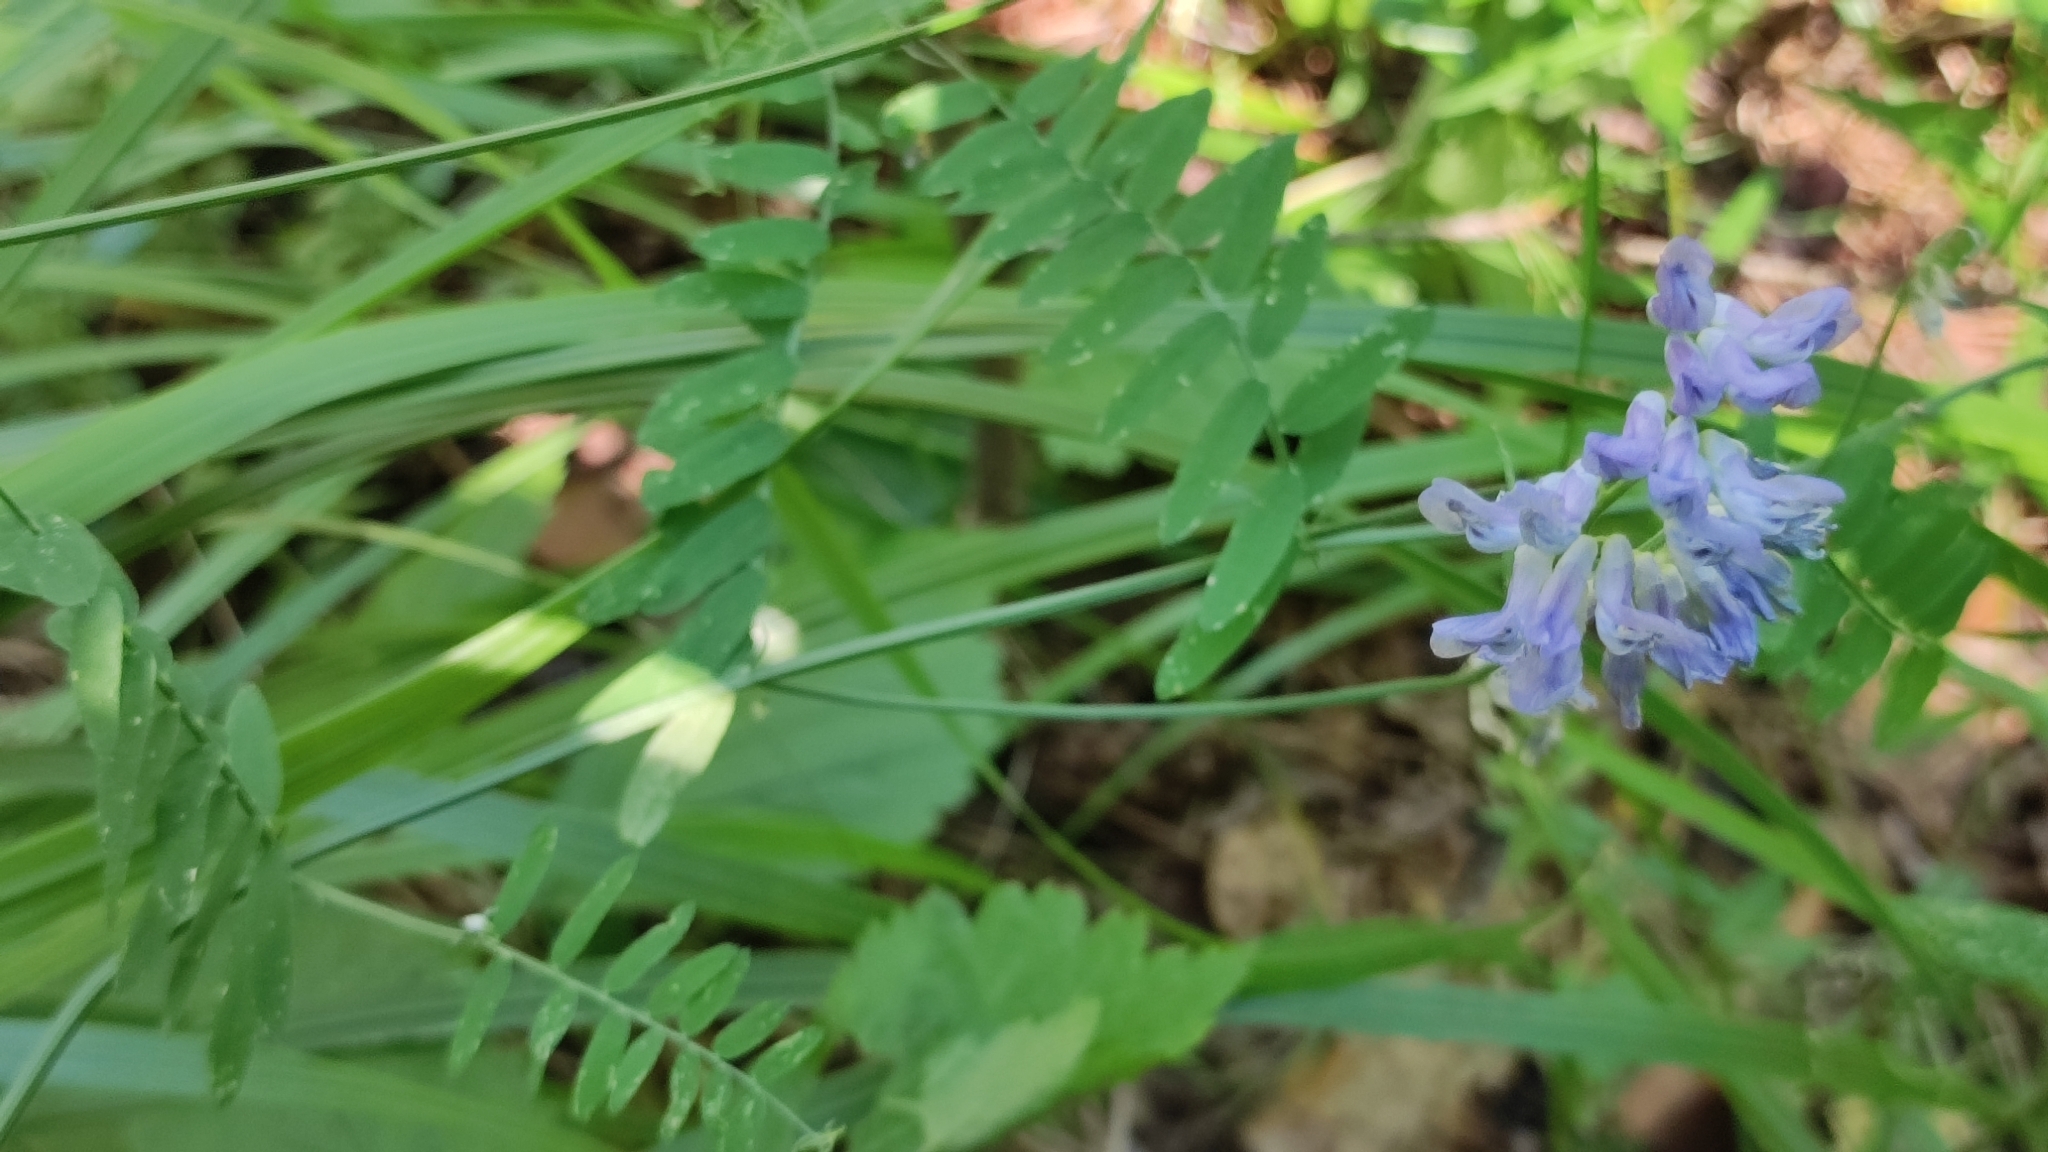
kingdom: Plantae
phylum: Tracheophyta
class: Magnoliopsida
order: Fabales
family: Fabaceae
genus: Vicia
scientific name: Vicia cracca
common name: Bird vetch
